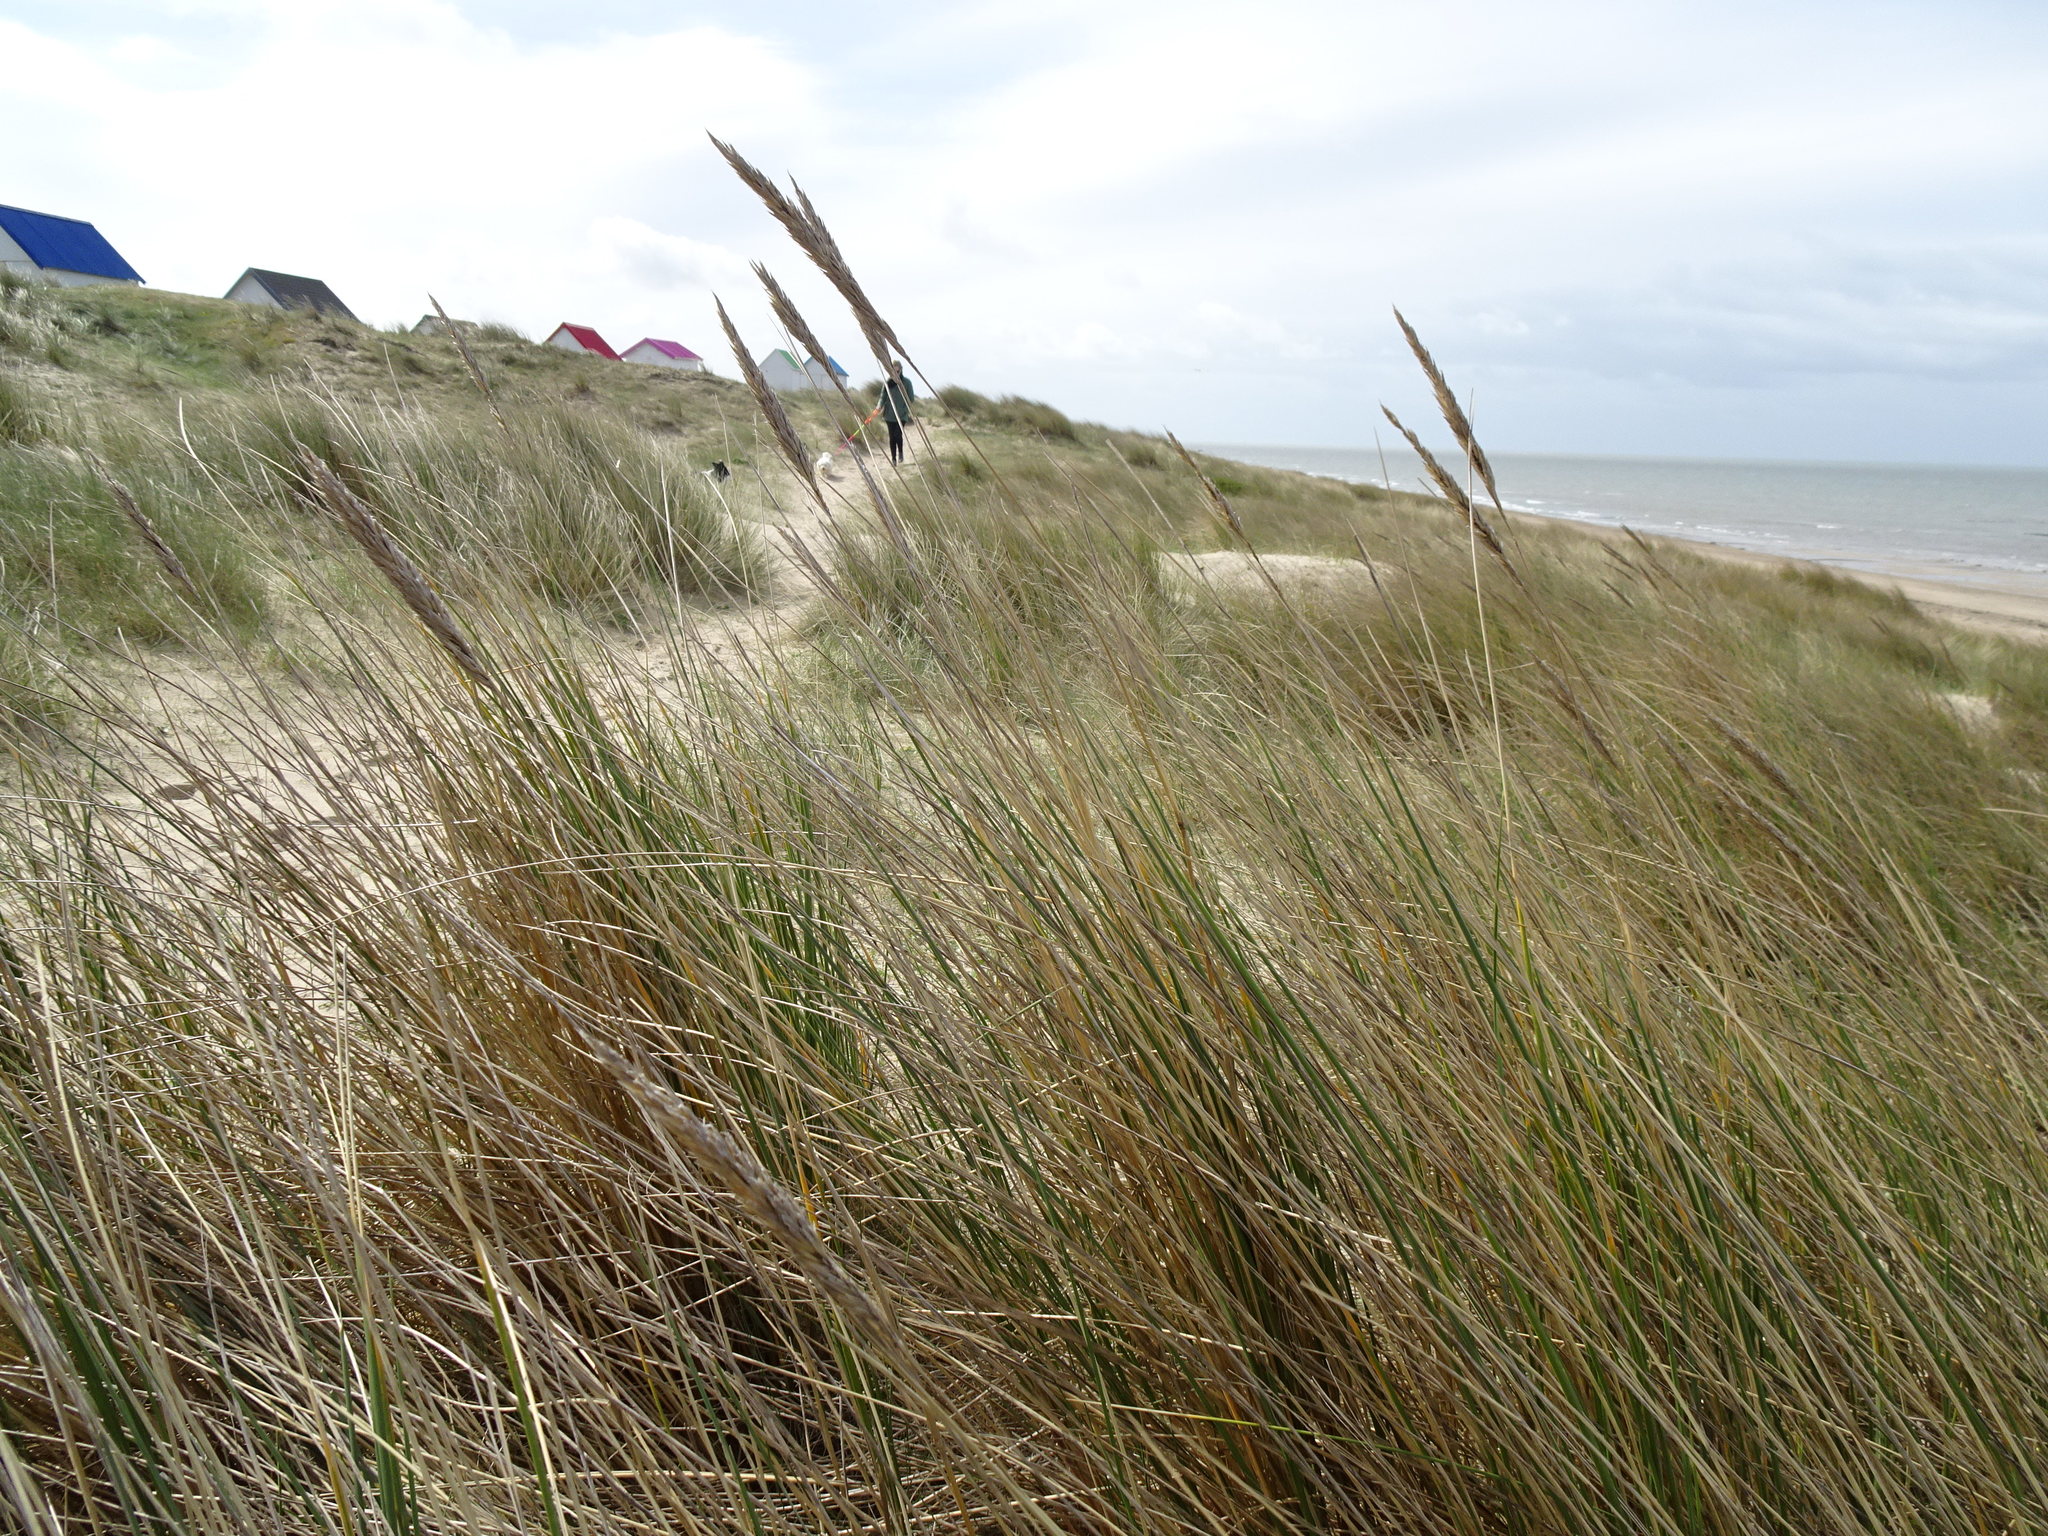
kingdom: Plantae
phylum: Tracheophyta
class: Liliopsida
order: Poales
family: Poaceae
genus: Calamagrostis
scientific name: Calamagrostis arenaria
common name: European beachgrass
